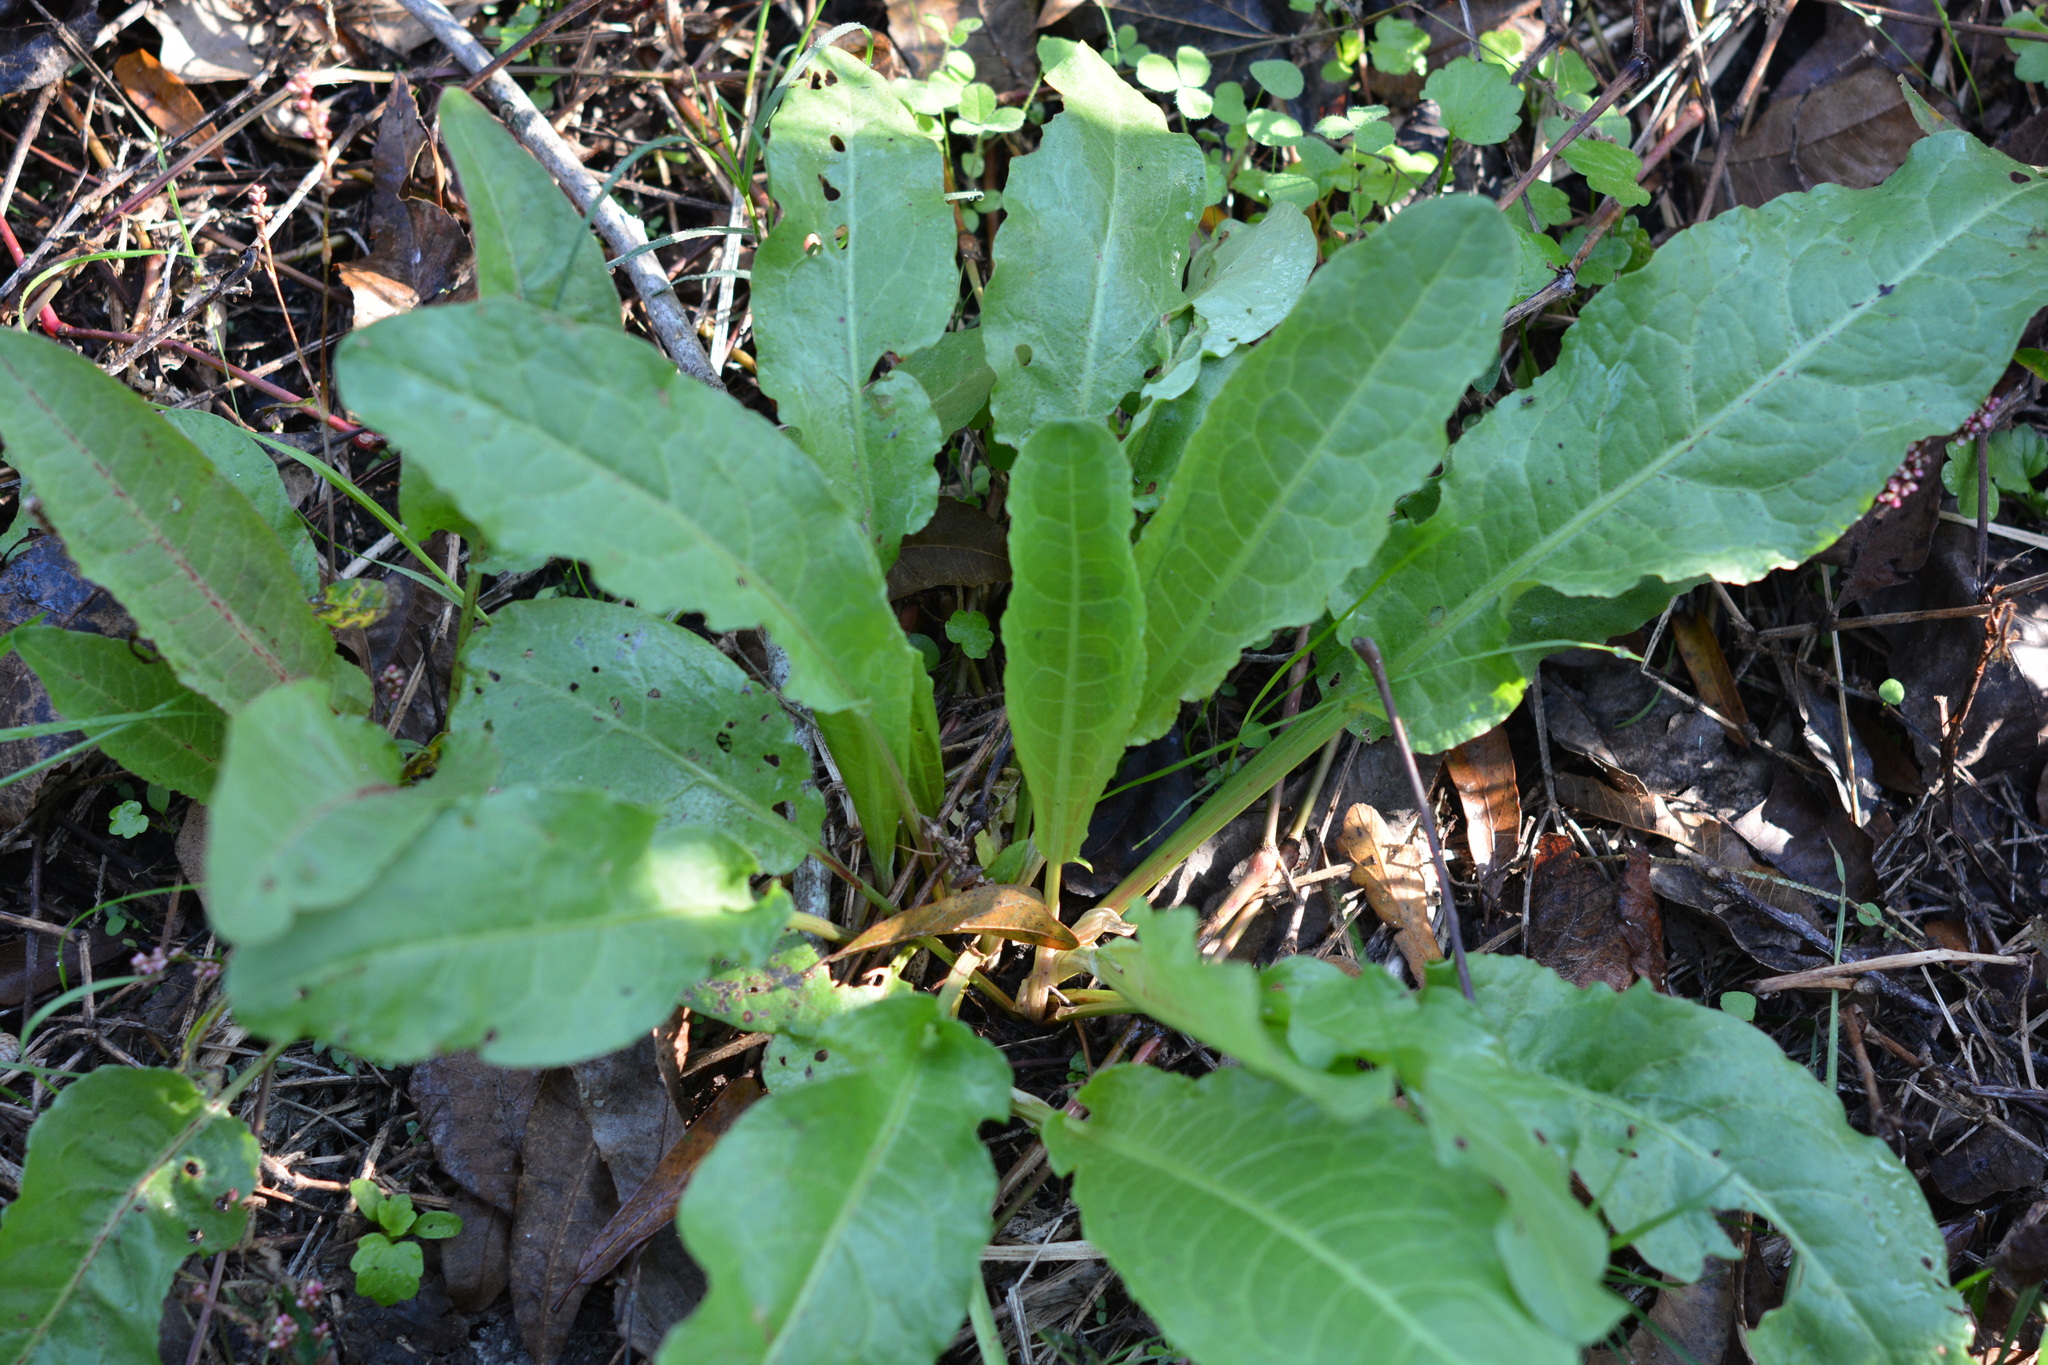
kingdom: Plantae
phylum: Tracheophyta
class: Magnoliopsida
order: Caryophyllales
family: Polygonaceae
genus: Rumex
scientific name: Rumex crispus
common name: Curled dock
